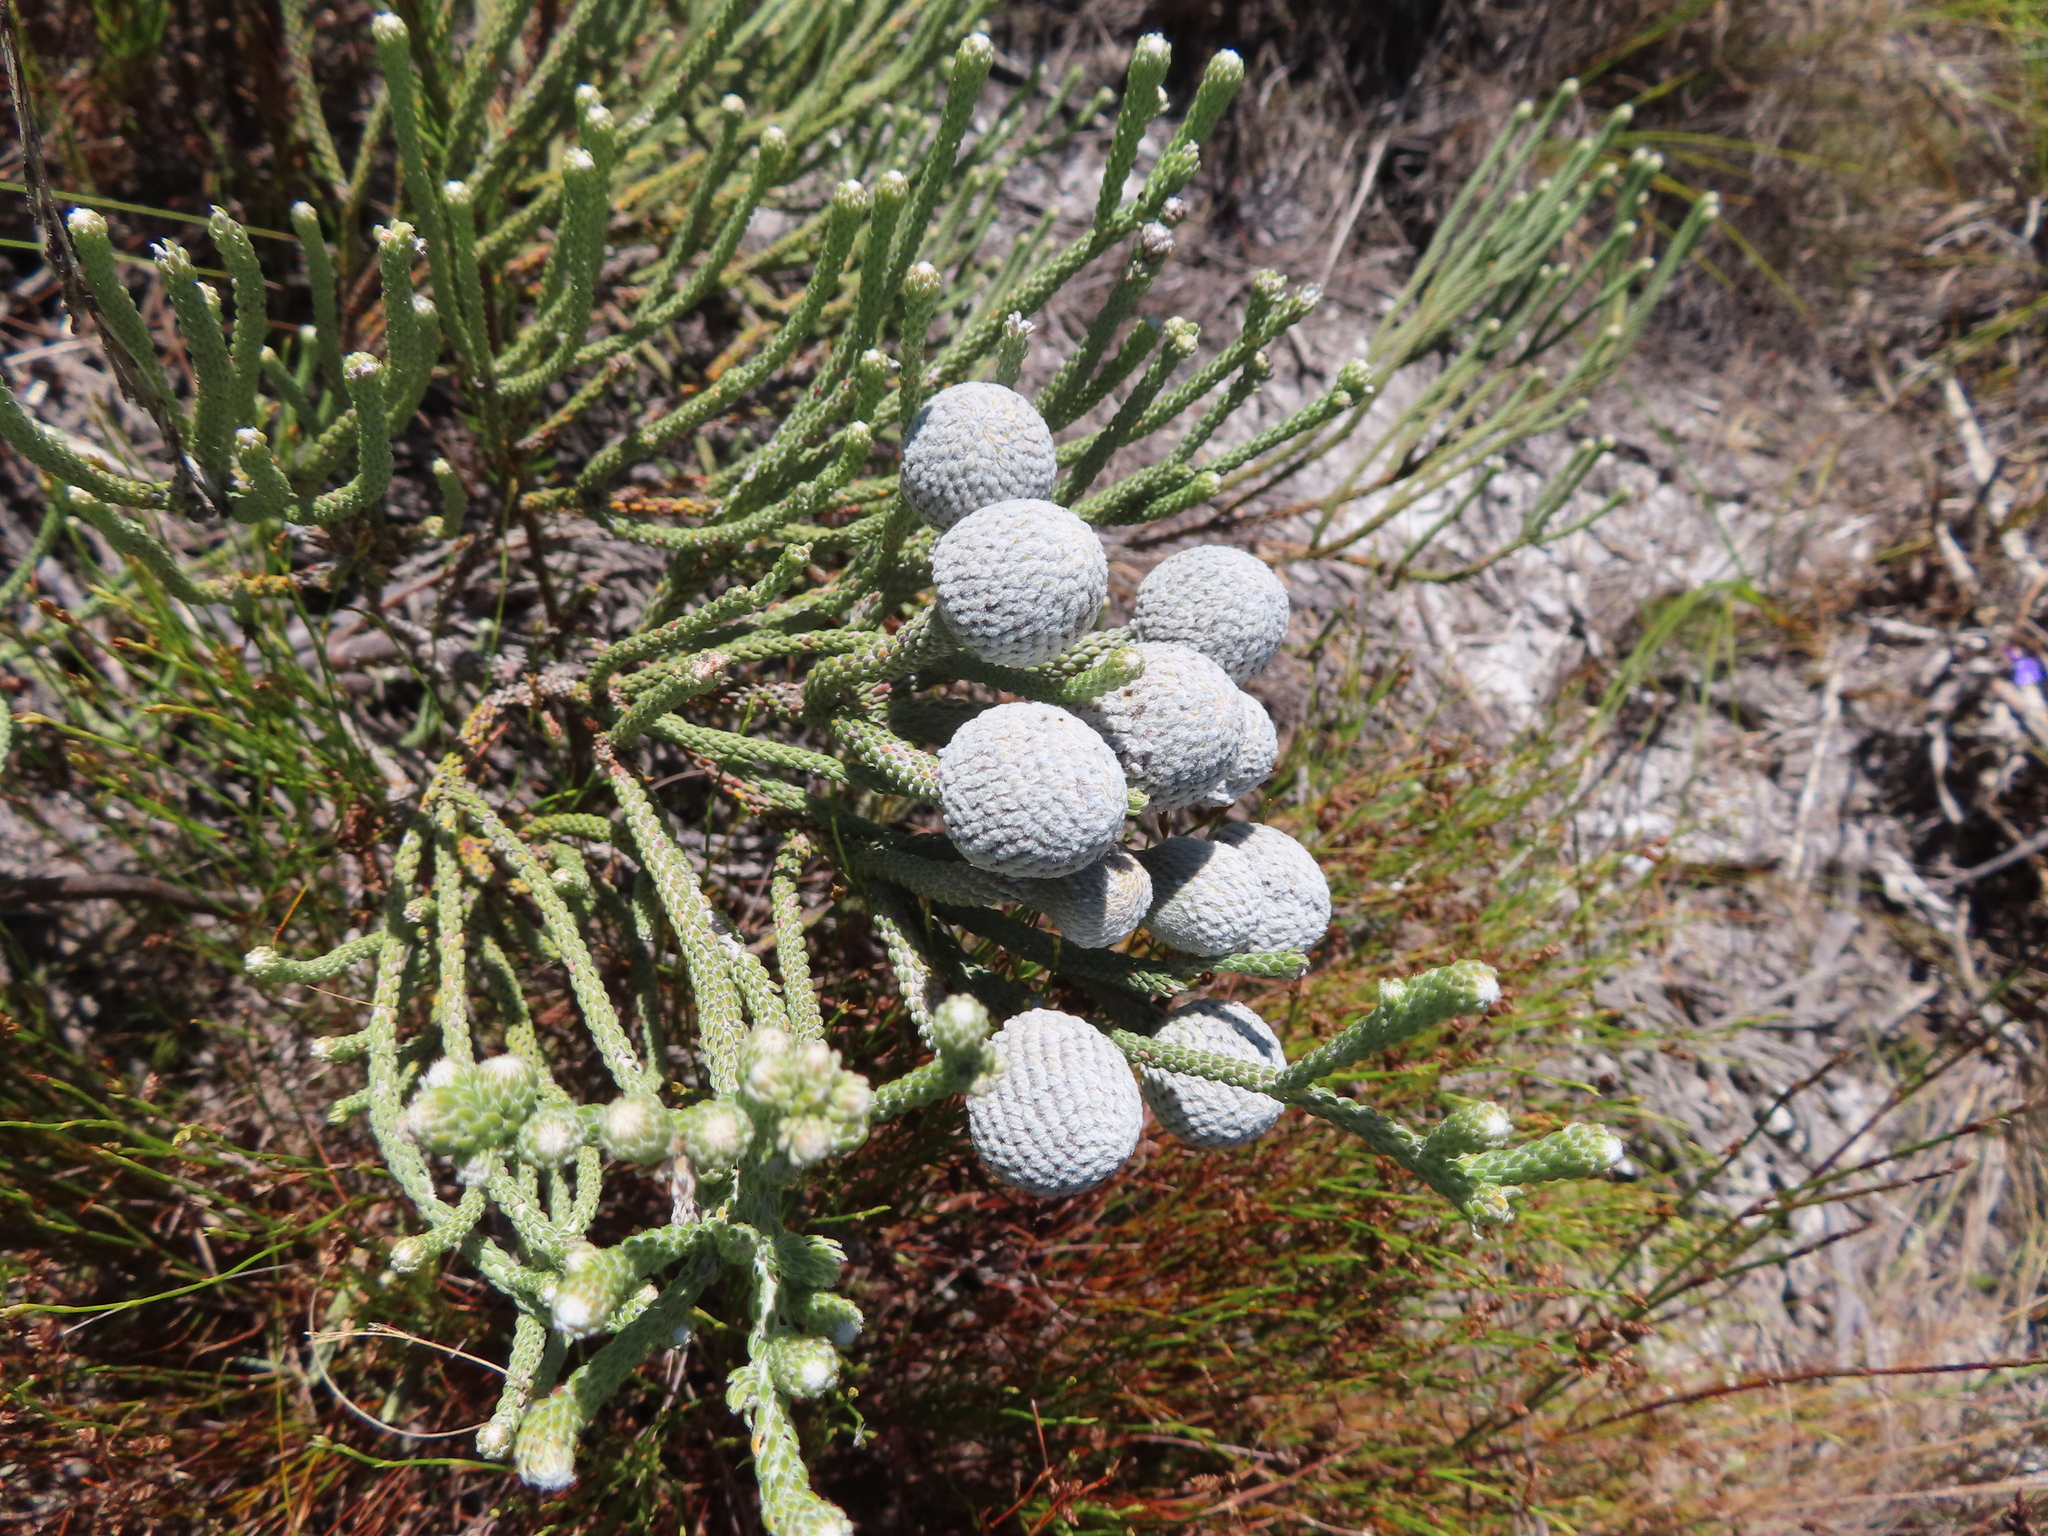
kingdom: Plantae
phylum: Tracheophyta
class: Magnoliopsida
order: Bruniales
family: Bruniaceae
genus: Brunia
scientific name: Brunia laevis
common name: Silver brunia
